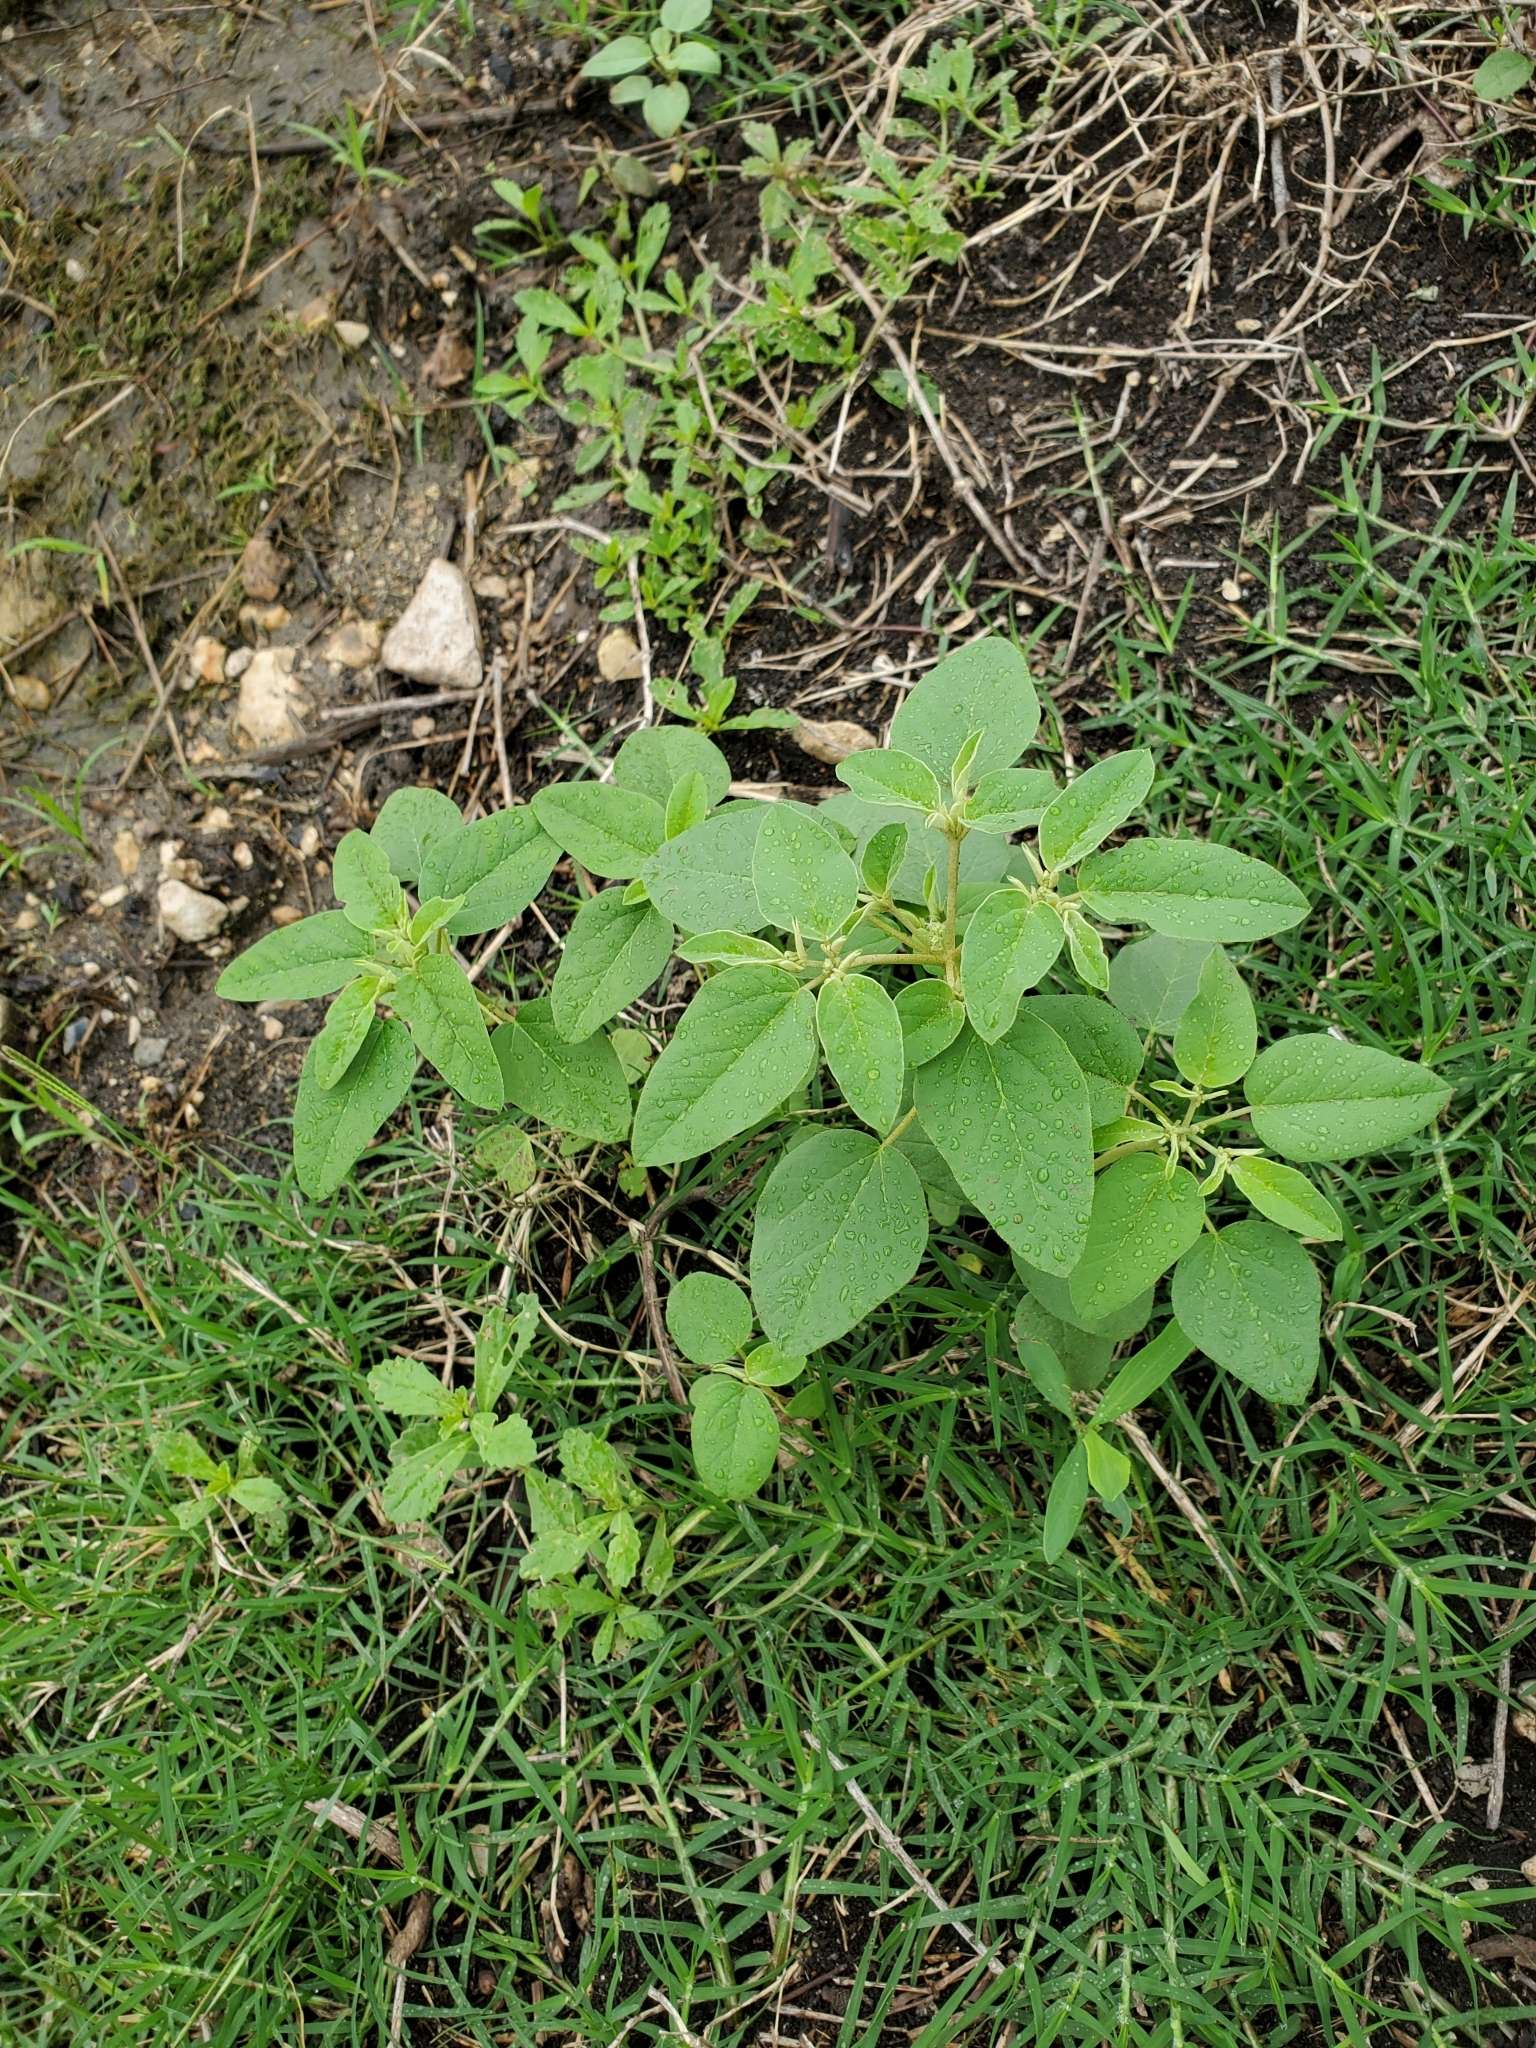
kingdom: Plantae
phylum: Tracheophyta
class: Magnoliopsida
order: Malpighiales
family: Euphorbiaceae
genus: Croton
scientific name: Croton monanthogynus
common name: One-seed croton
